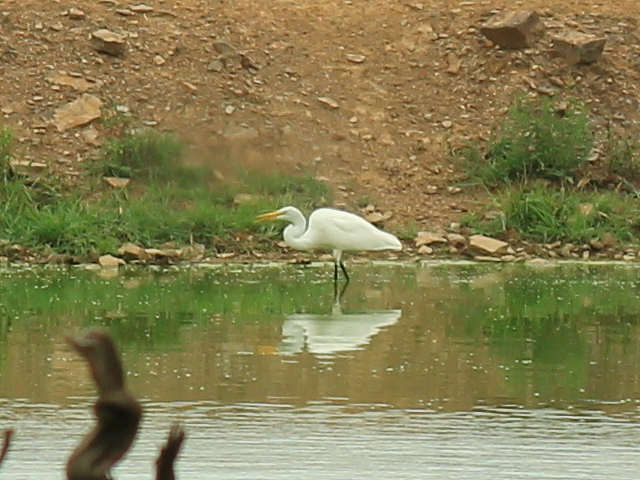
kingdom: Animalia
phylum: Chordata
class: Aves
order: Pelecaniformes
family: Ardeidae
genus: Ardea
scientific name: Ardea alba
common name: Great egret
